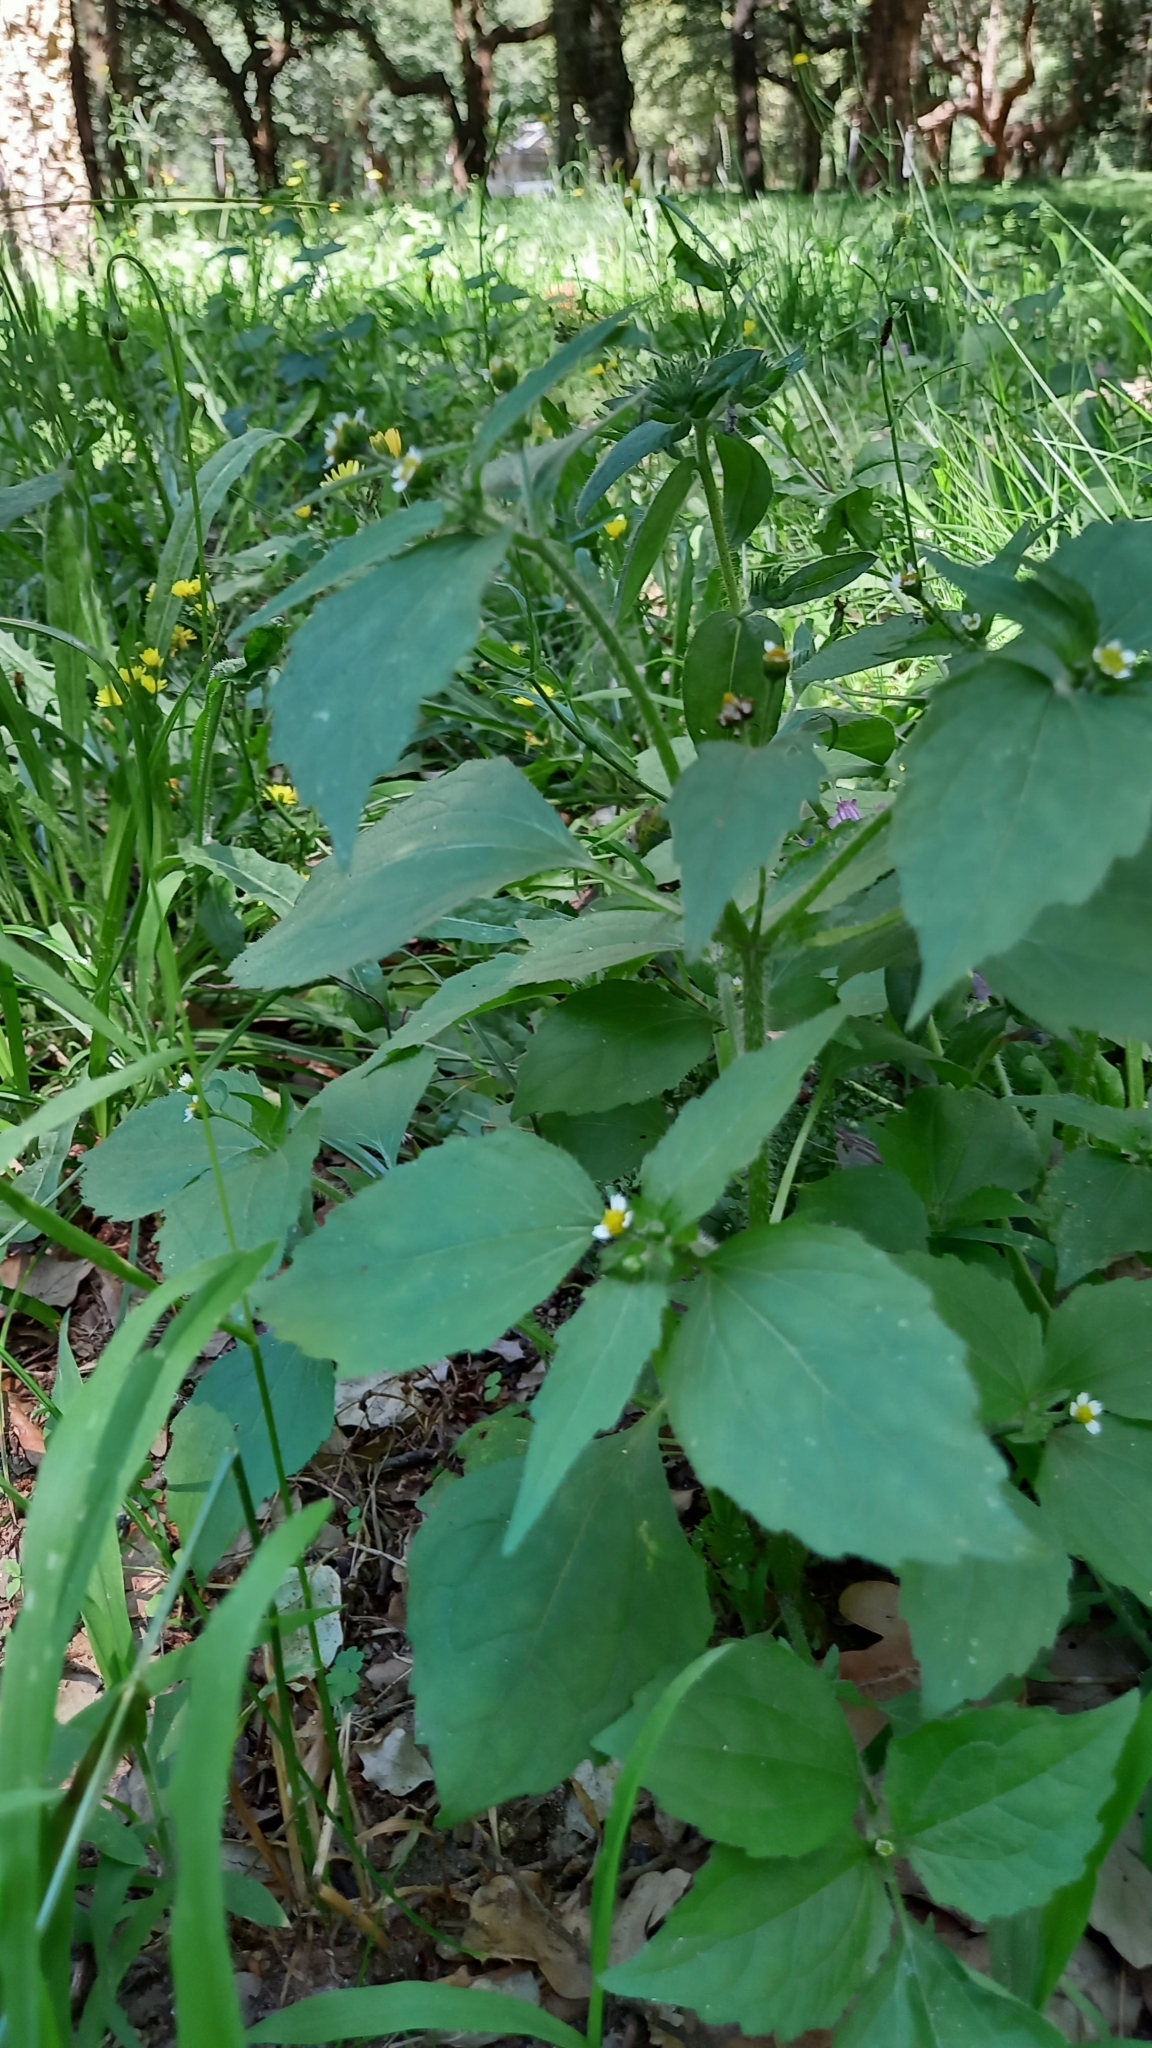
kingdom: Plantae
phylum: Tracheophyta
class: Magnoliopsida
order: Asterales
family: Asteraceae
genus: Galinsoga
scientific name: Galinsoga quadriradiata
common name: Shaggy soldier
